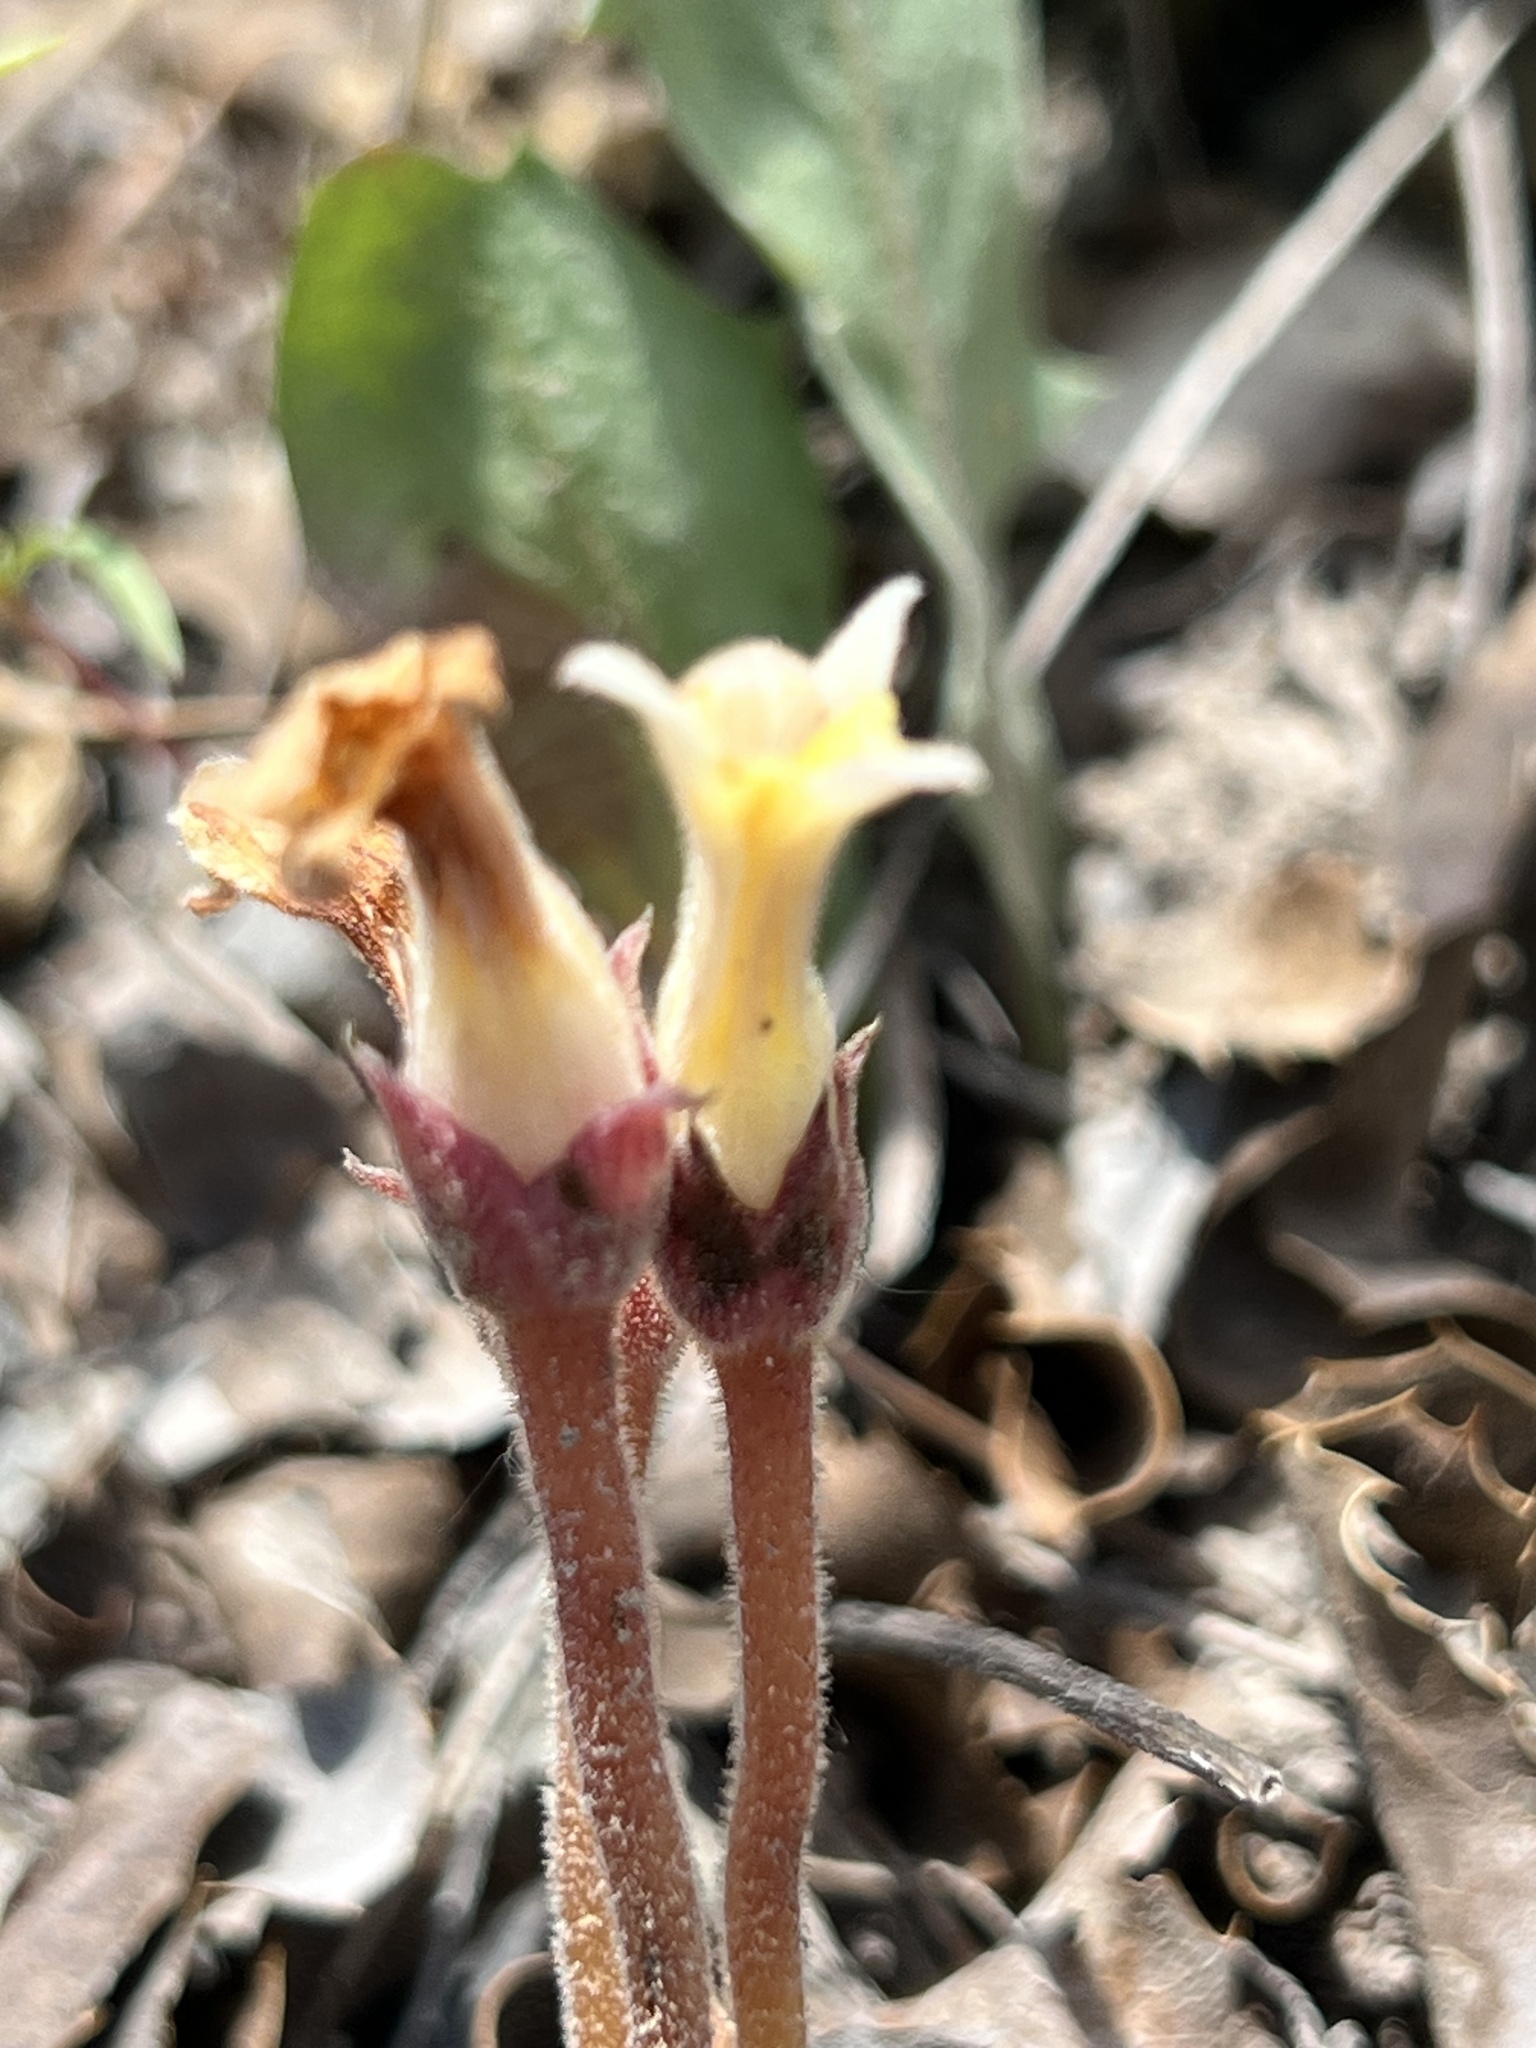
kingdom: Plantae
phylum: Tracheophyta
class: Magnoliopsida
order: Lamiales
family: Orobanchaceae
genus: Aphyllon
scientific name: Aphyllon fasciculatum
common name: Clustered broomrape
